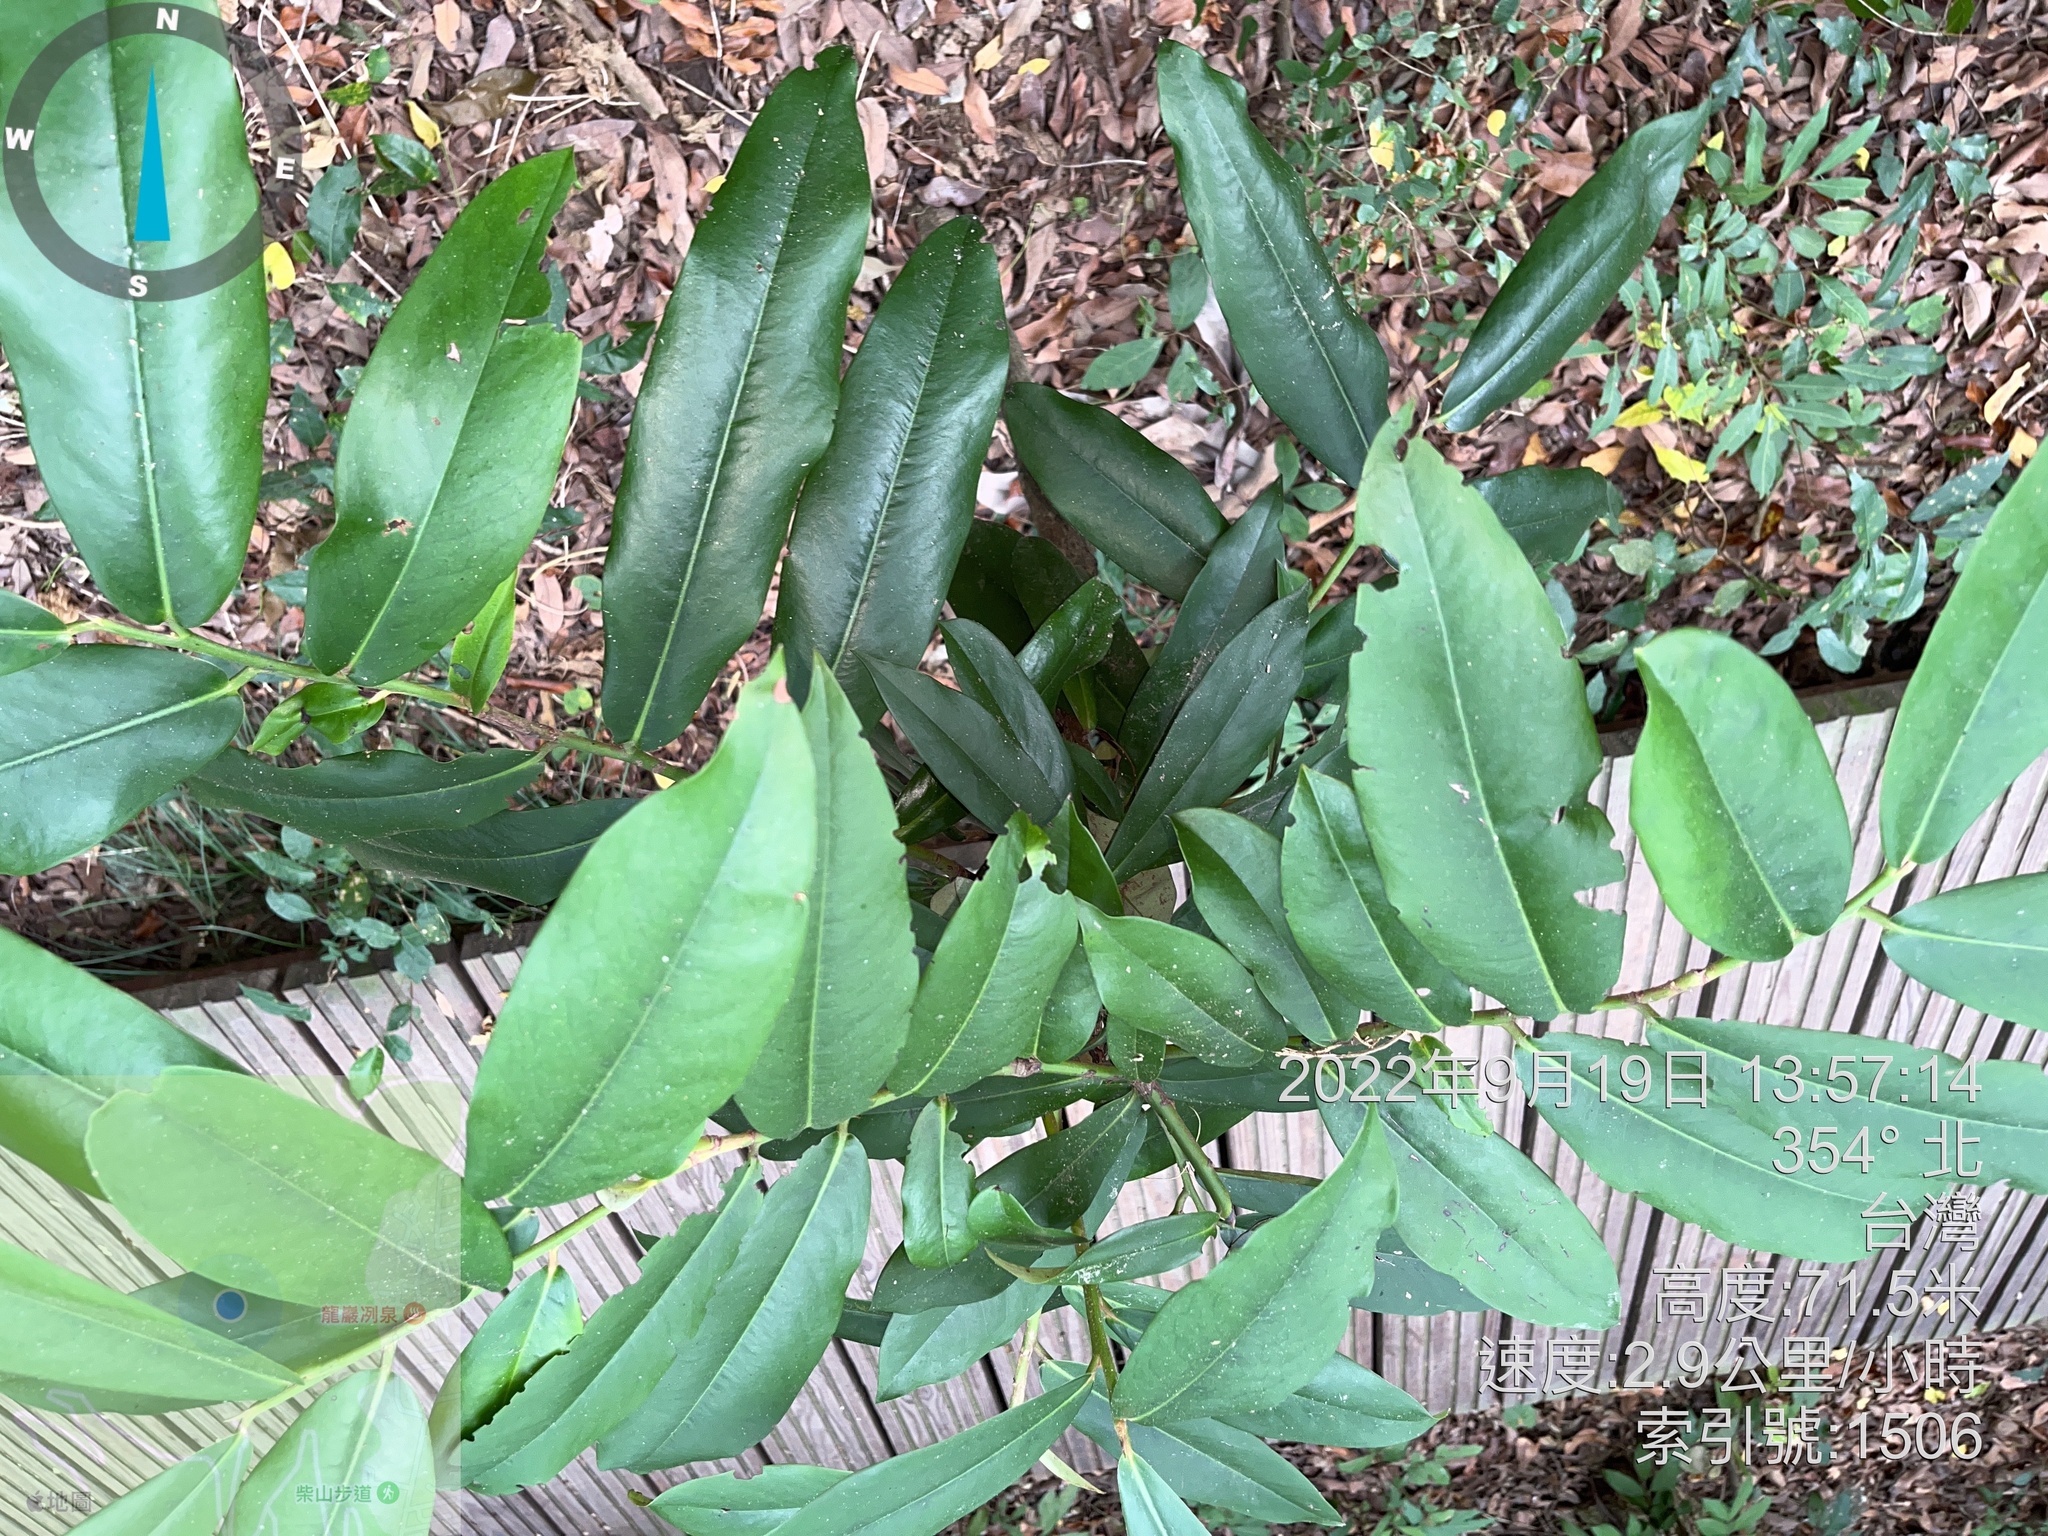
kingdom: Plantae
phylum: Tracheophyta
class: Magnoliopsida
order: Ericales
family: Ebenaceae
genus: Diospyros
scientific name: Diospyros blancoi
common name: Mabola-tree
